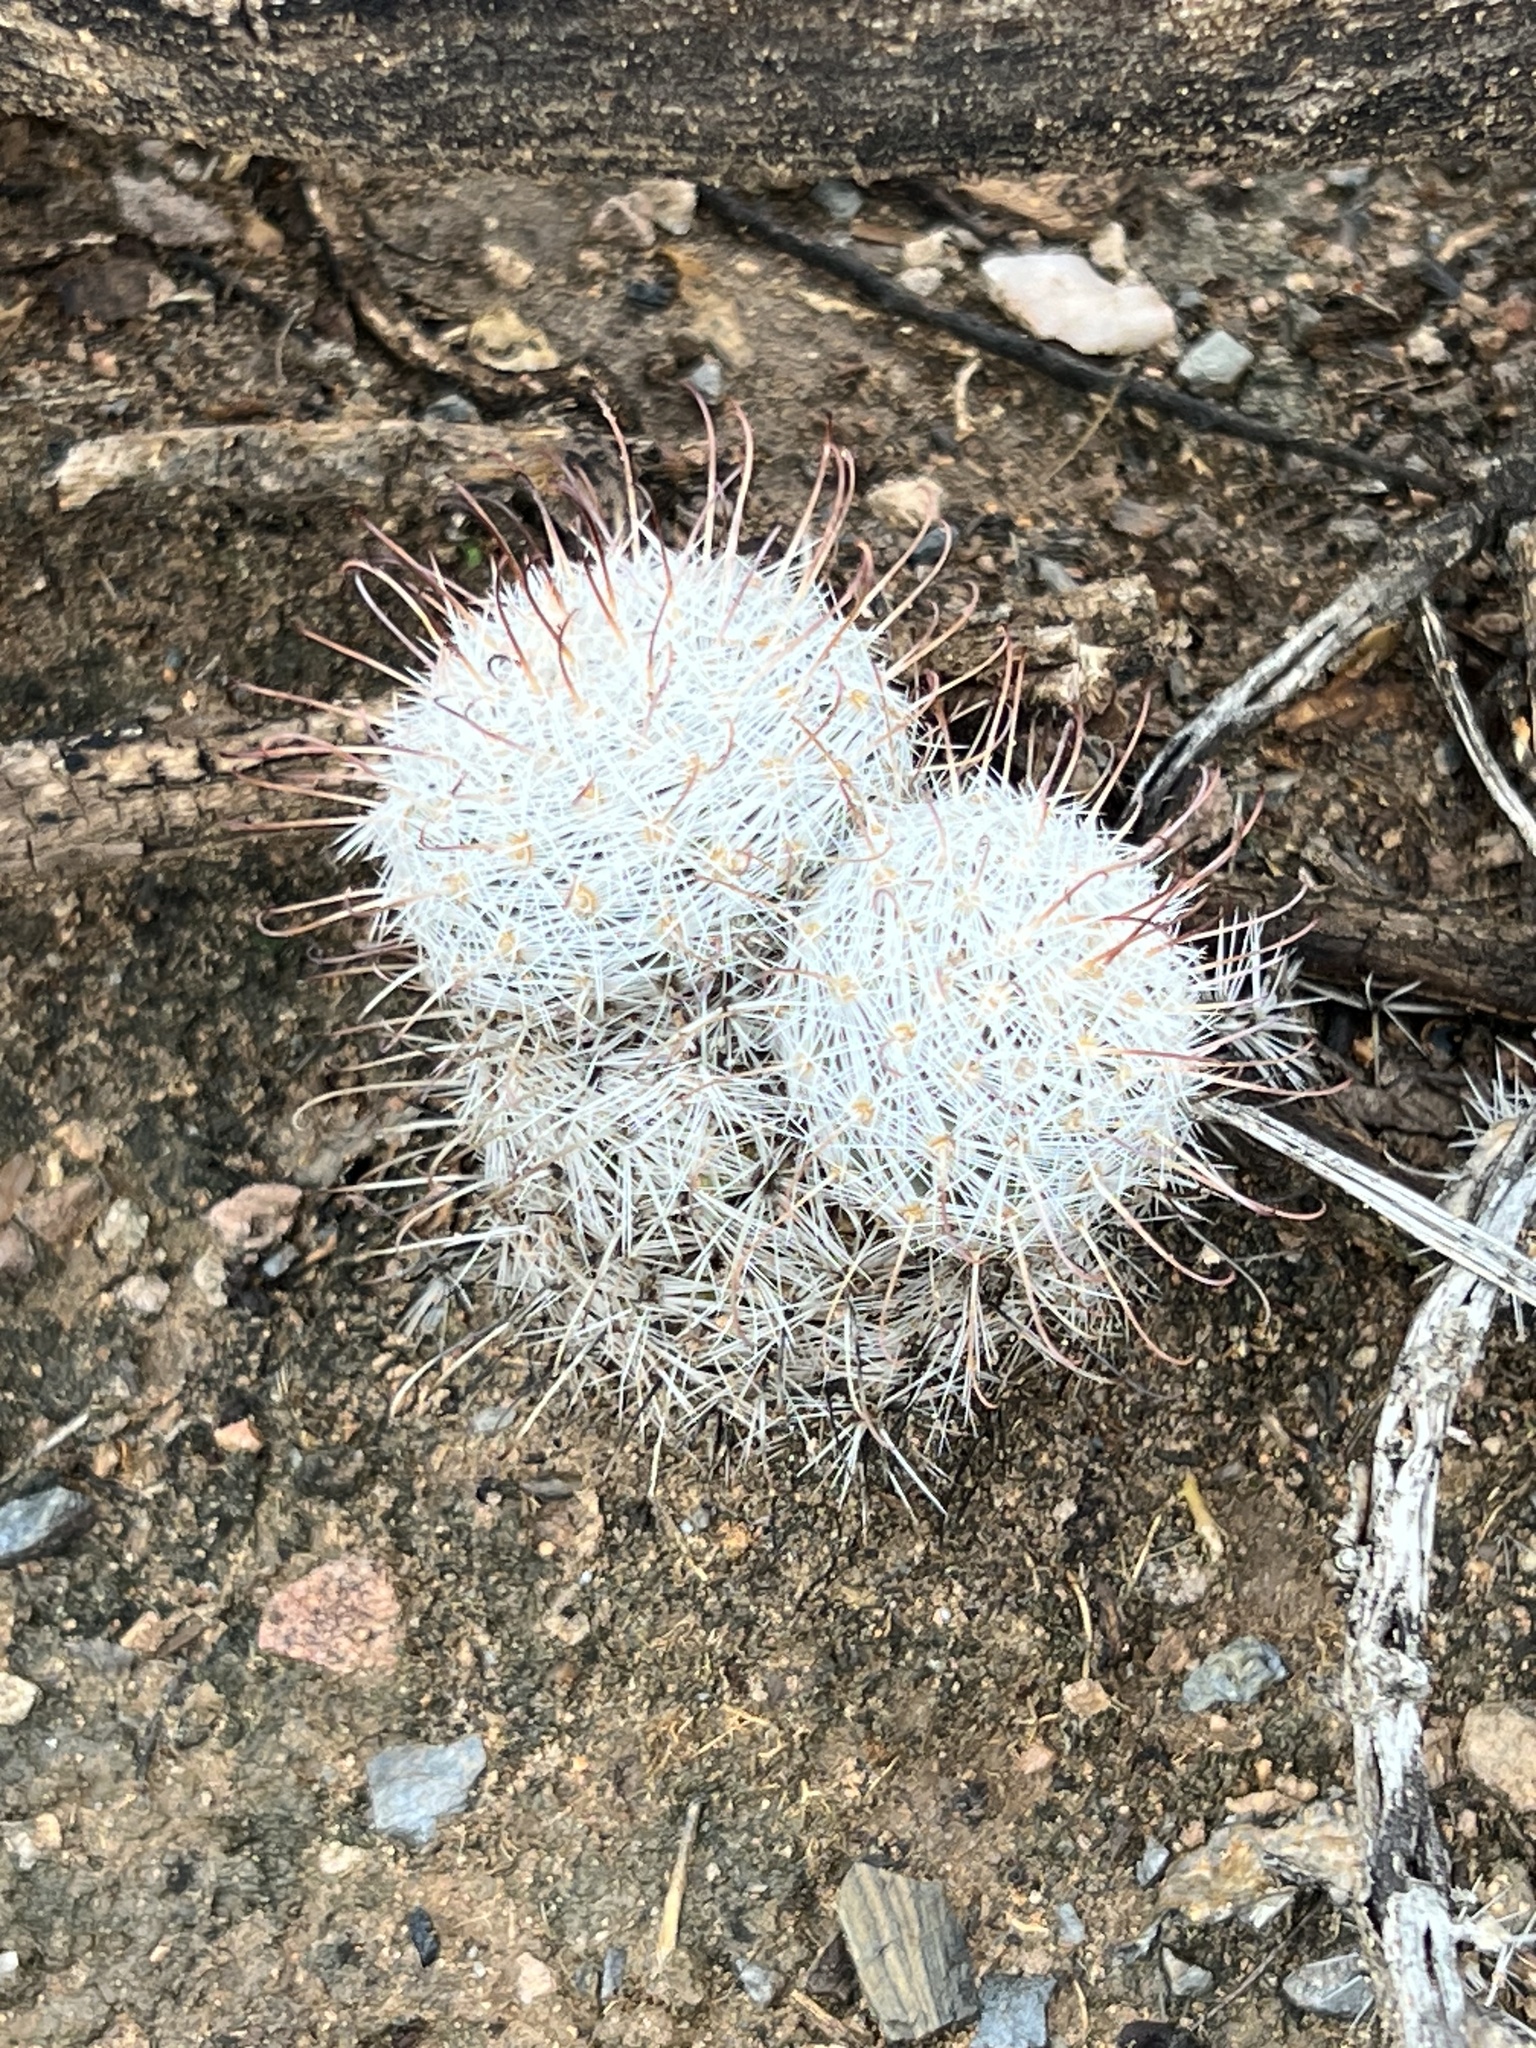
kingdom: Plantae
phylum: Tracheophyta
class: Magnoliopsida
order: Caryophyllales
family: Cactaceae
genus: Cochemiea
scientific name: Cochemiea grahamii
